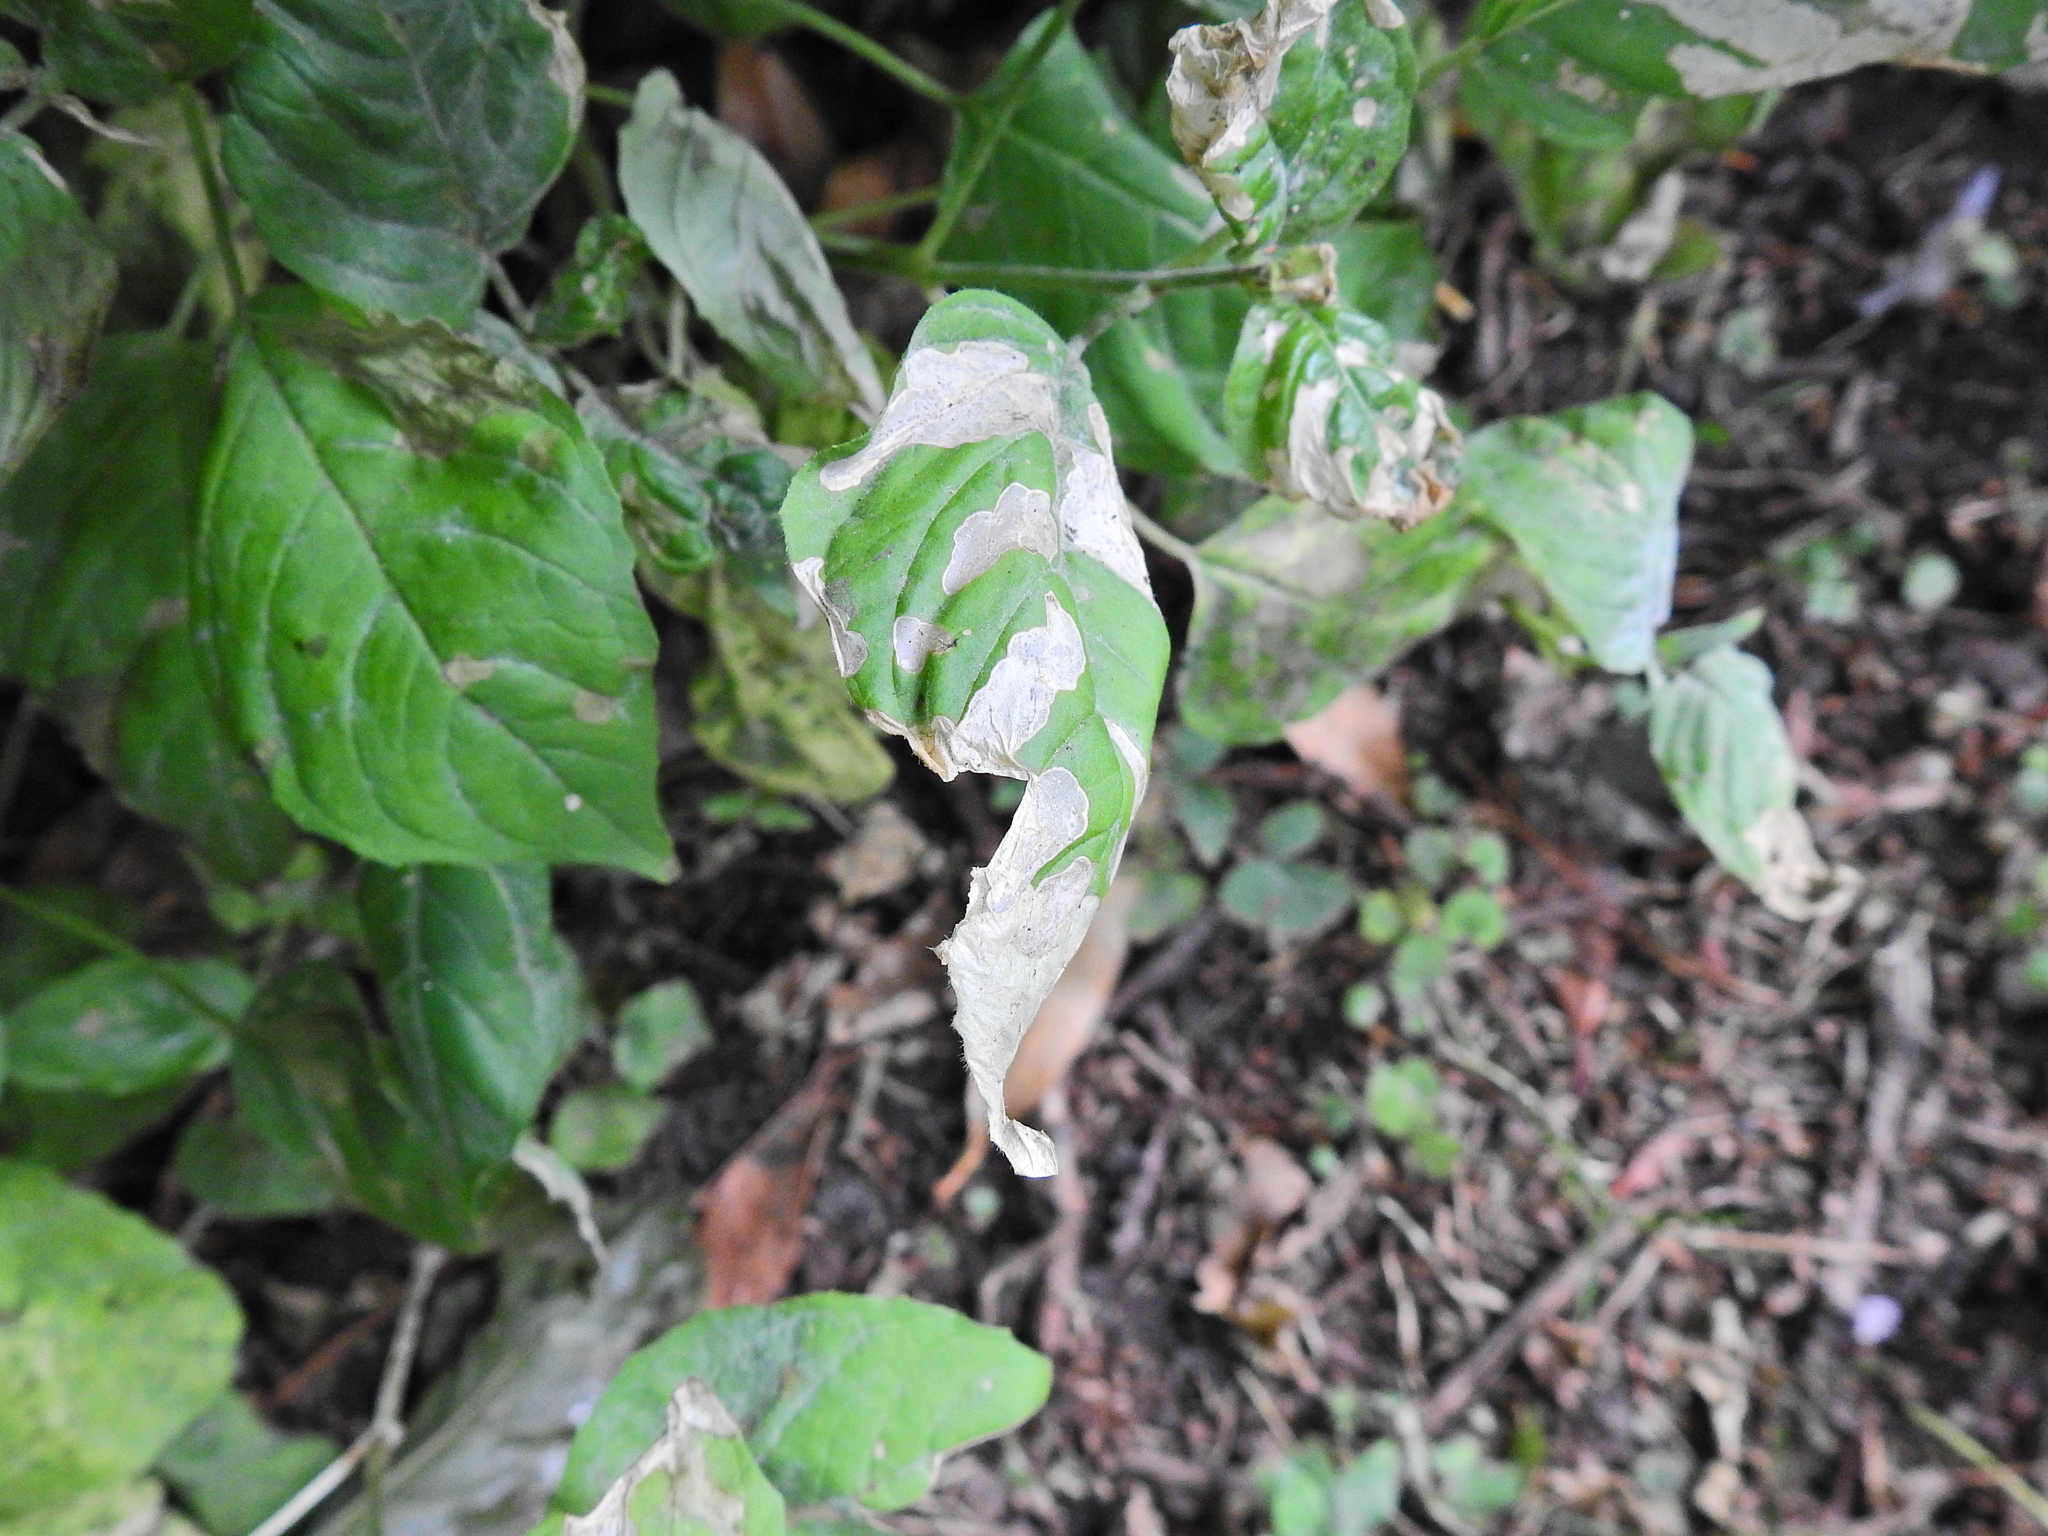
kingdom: Plantae
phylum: Tracheophyta
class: Magnoliopsida
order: Myrtales
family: Onagraceae
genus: Circaea
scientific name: Circaea lutetiana
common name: Enchanter's-nightshade
